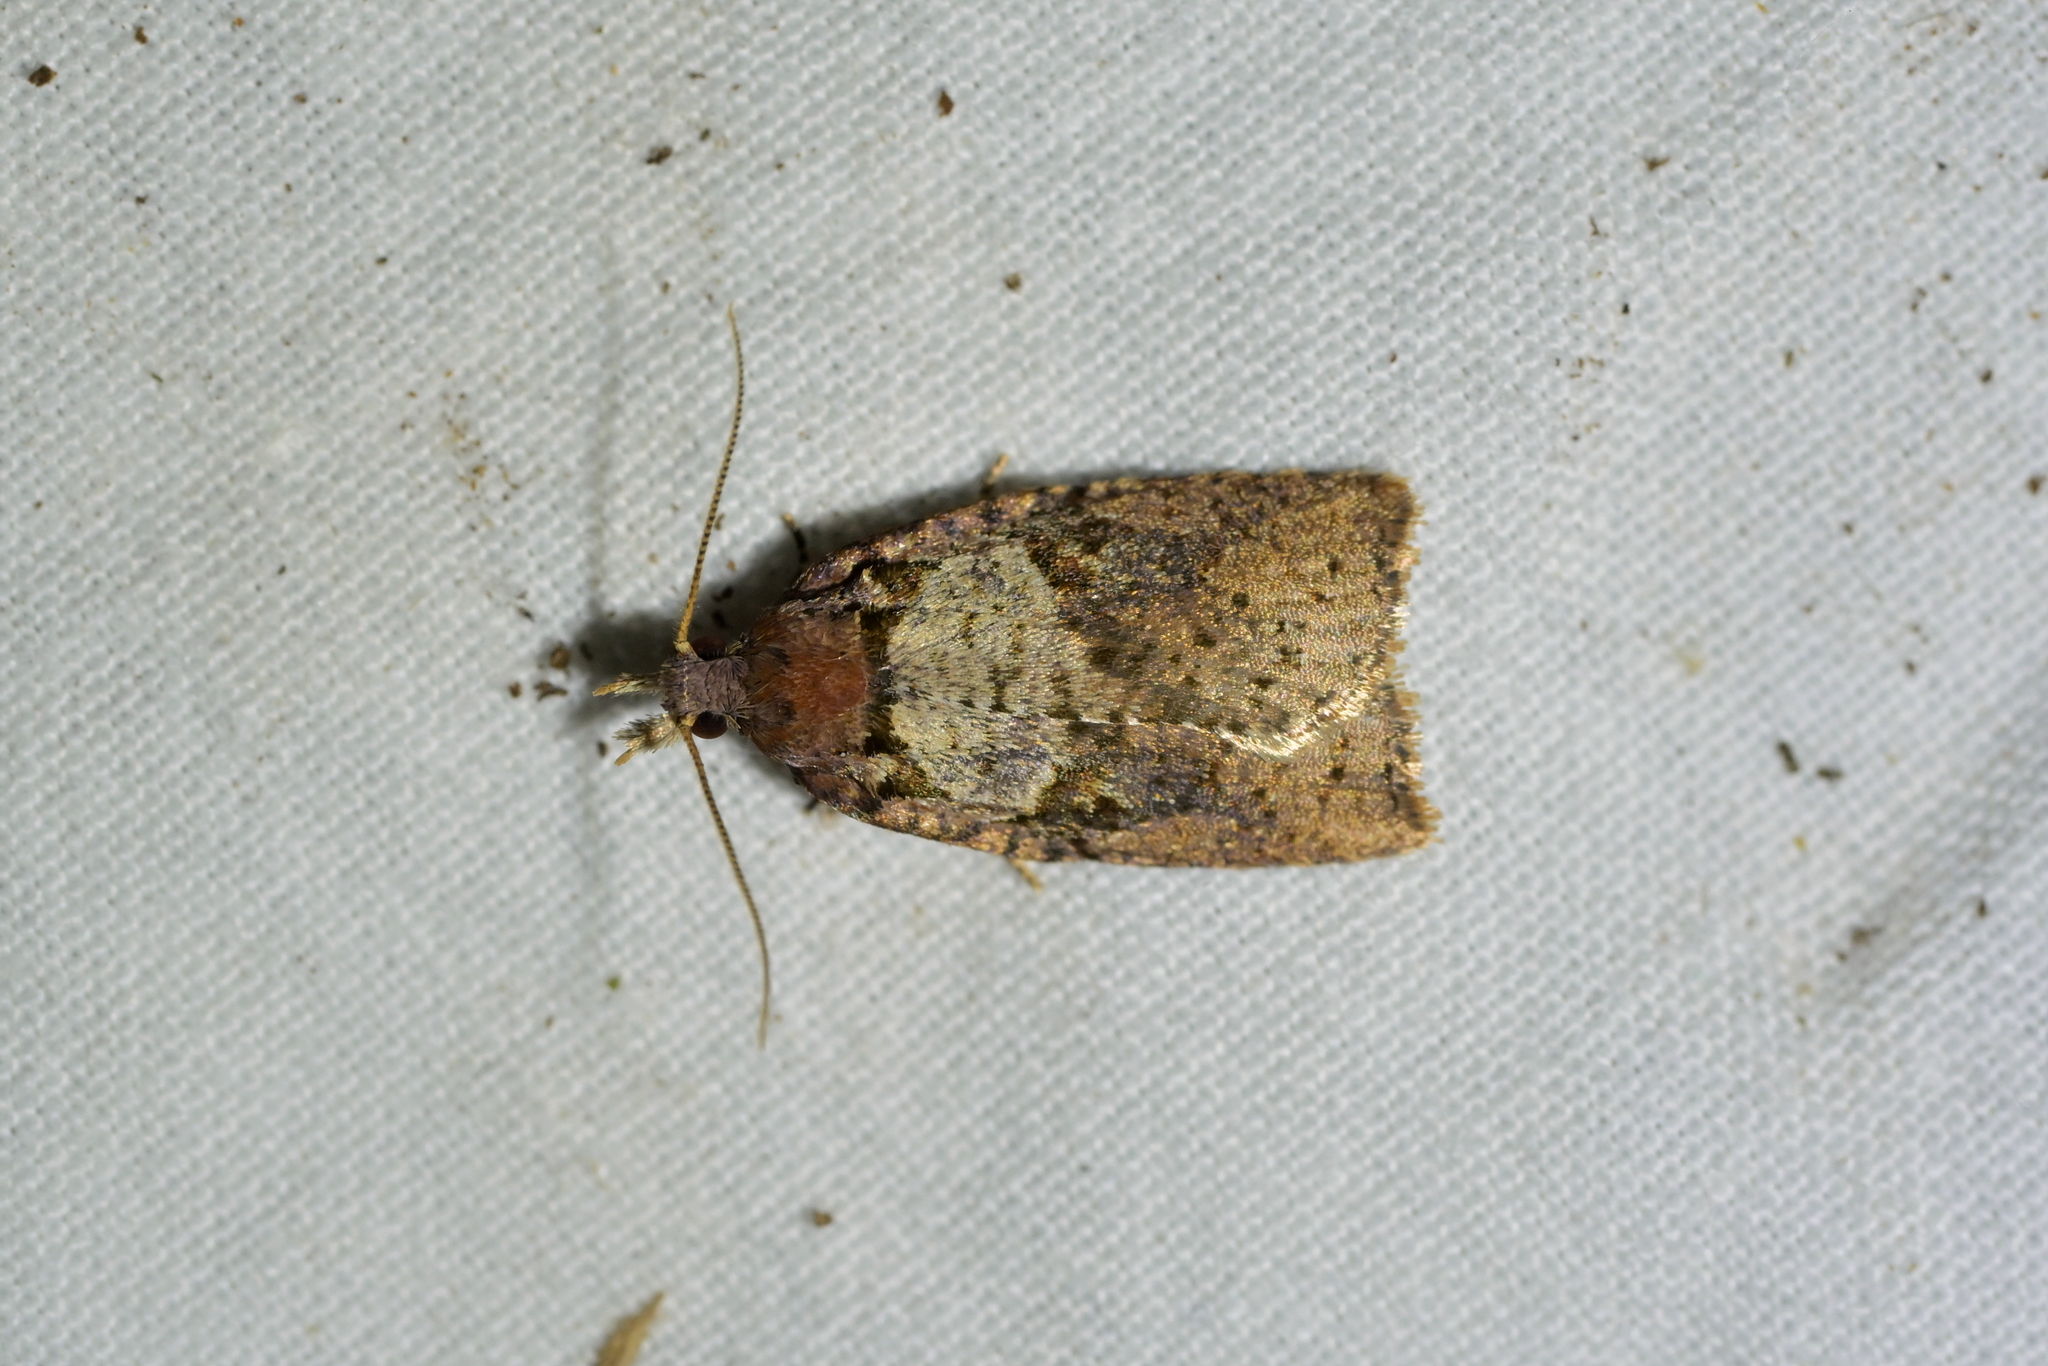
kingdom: Animalia
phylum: Arthropoda
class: Insecta
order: Lepidoptera
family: Tortricidae
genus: Ctenopseustis
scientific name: Ctenopseustis obliquana
